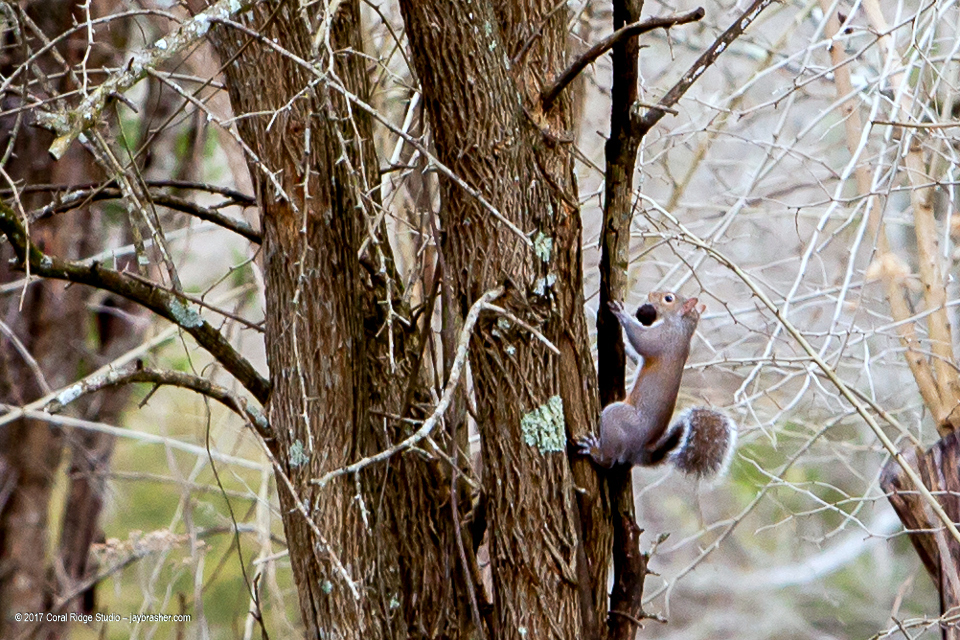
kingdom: Animalia
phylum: Chordata
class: Mammalia
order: Rodentia
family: Sciuridae
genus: Sciurus
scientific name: Sciurus carolinensis
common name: Eastern gray squirrel
